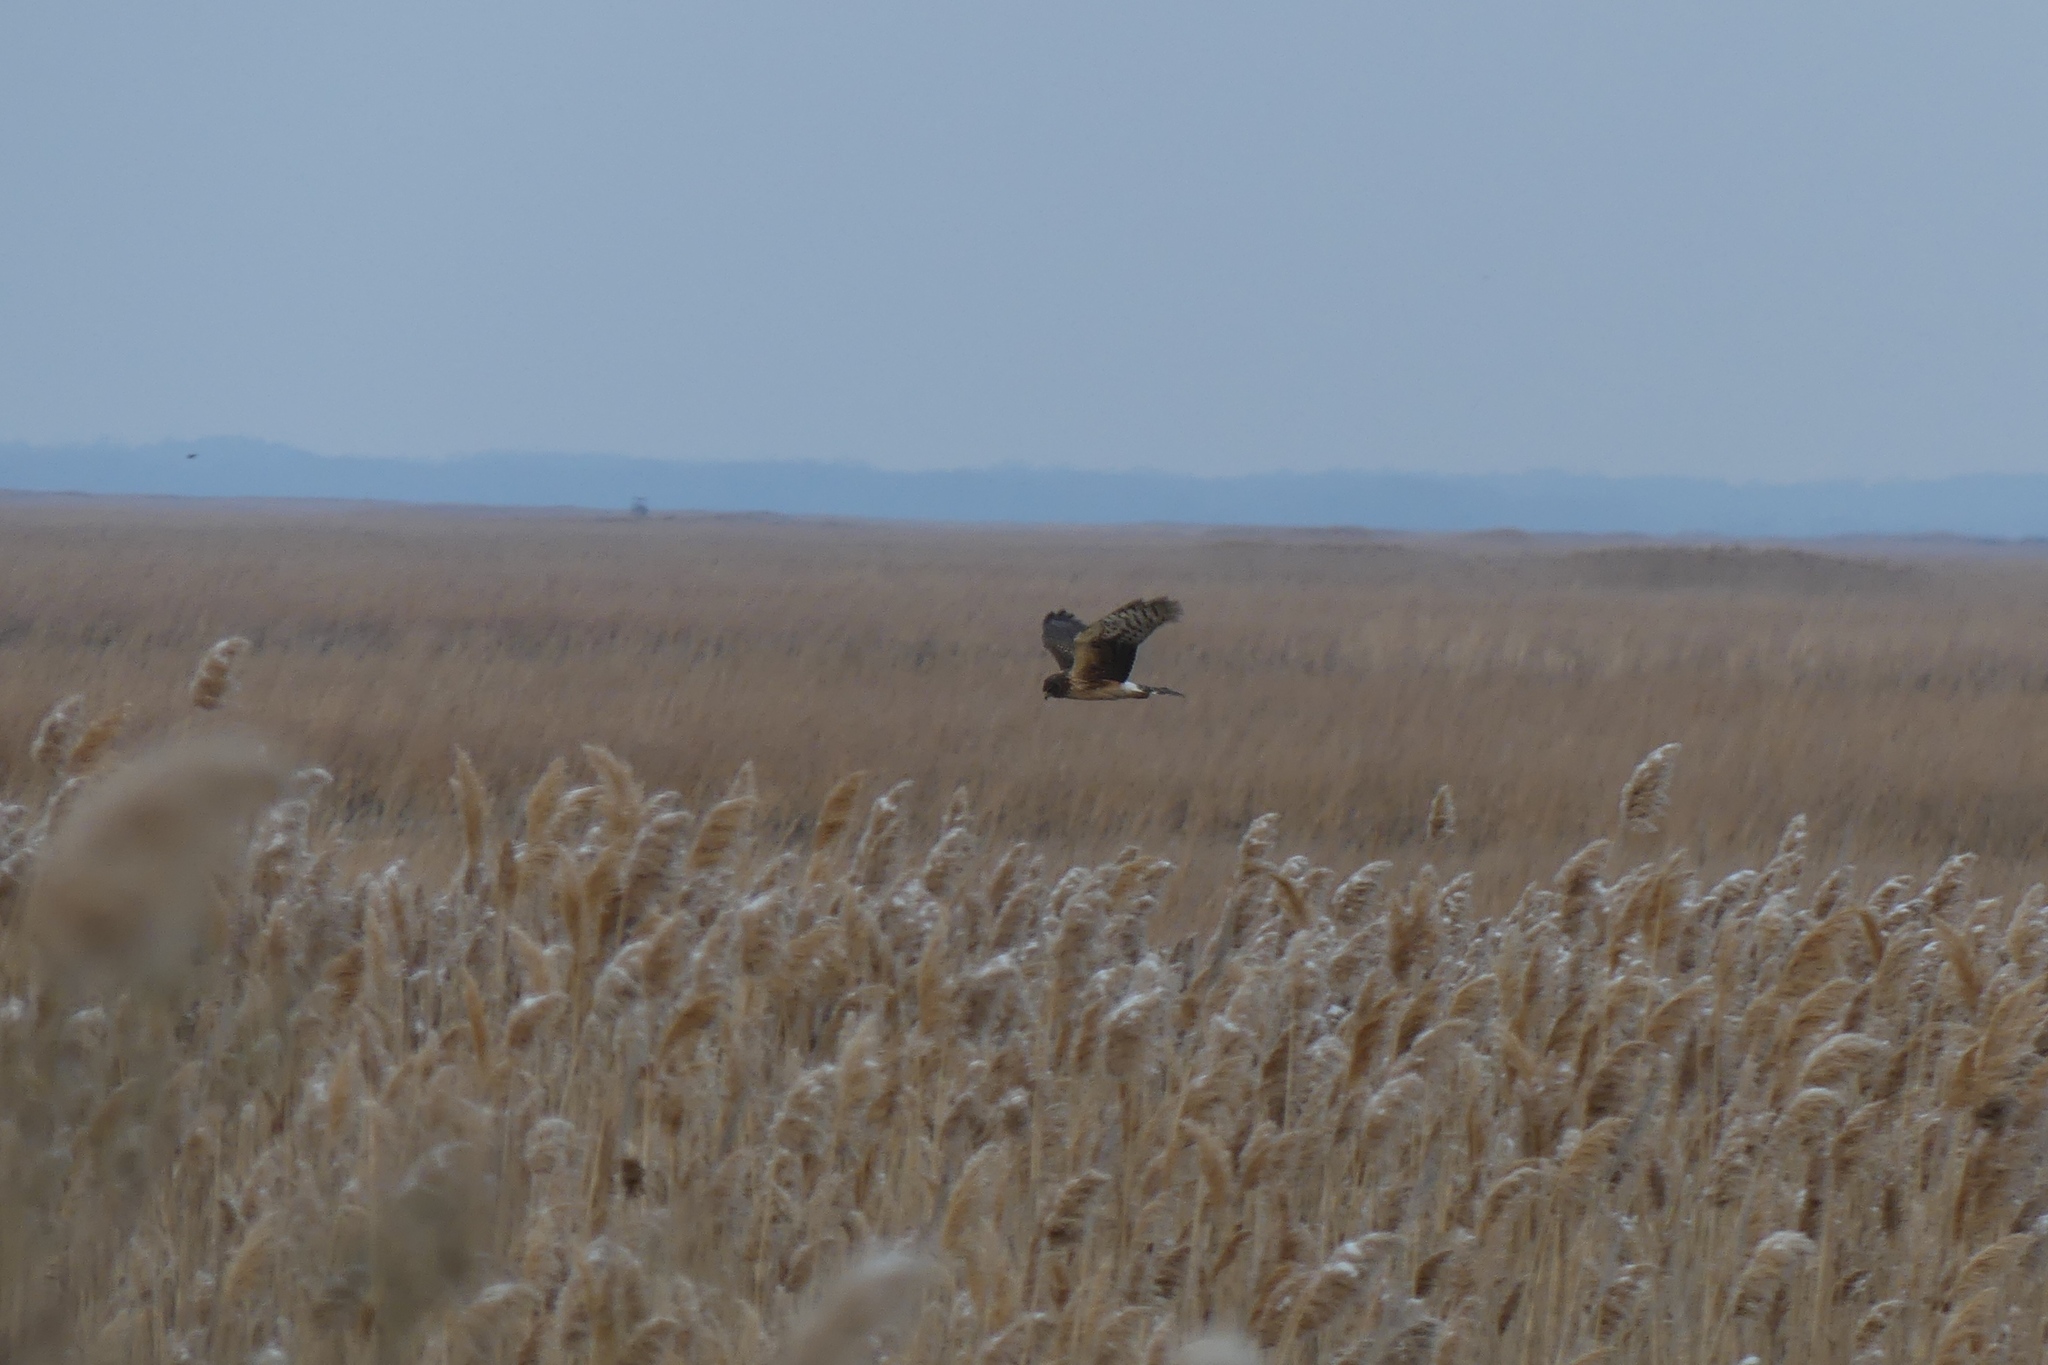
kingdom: Animalia
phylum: Chordata
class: Aves
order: Accipitriformes
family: Accipitridae
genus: Circus
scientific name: Circus cyaneus
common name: Hen harrier
